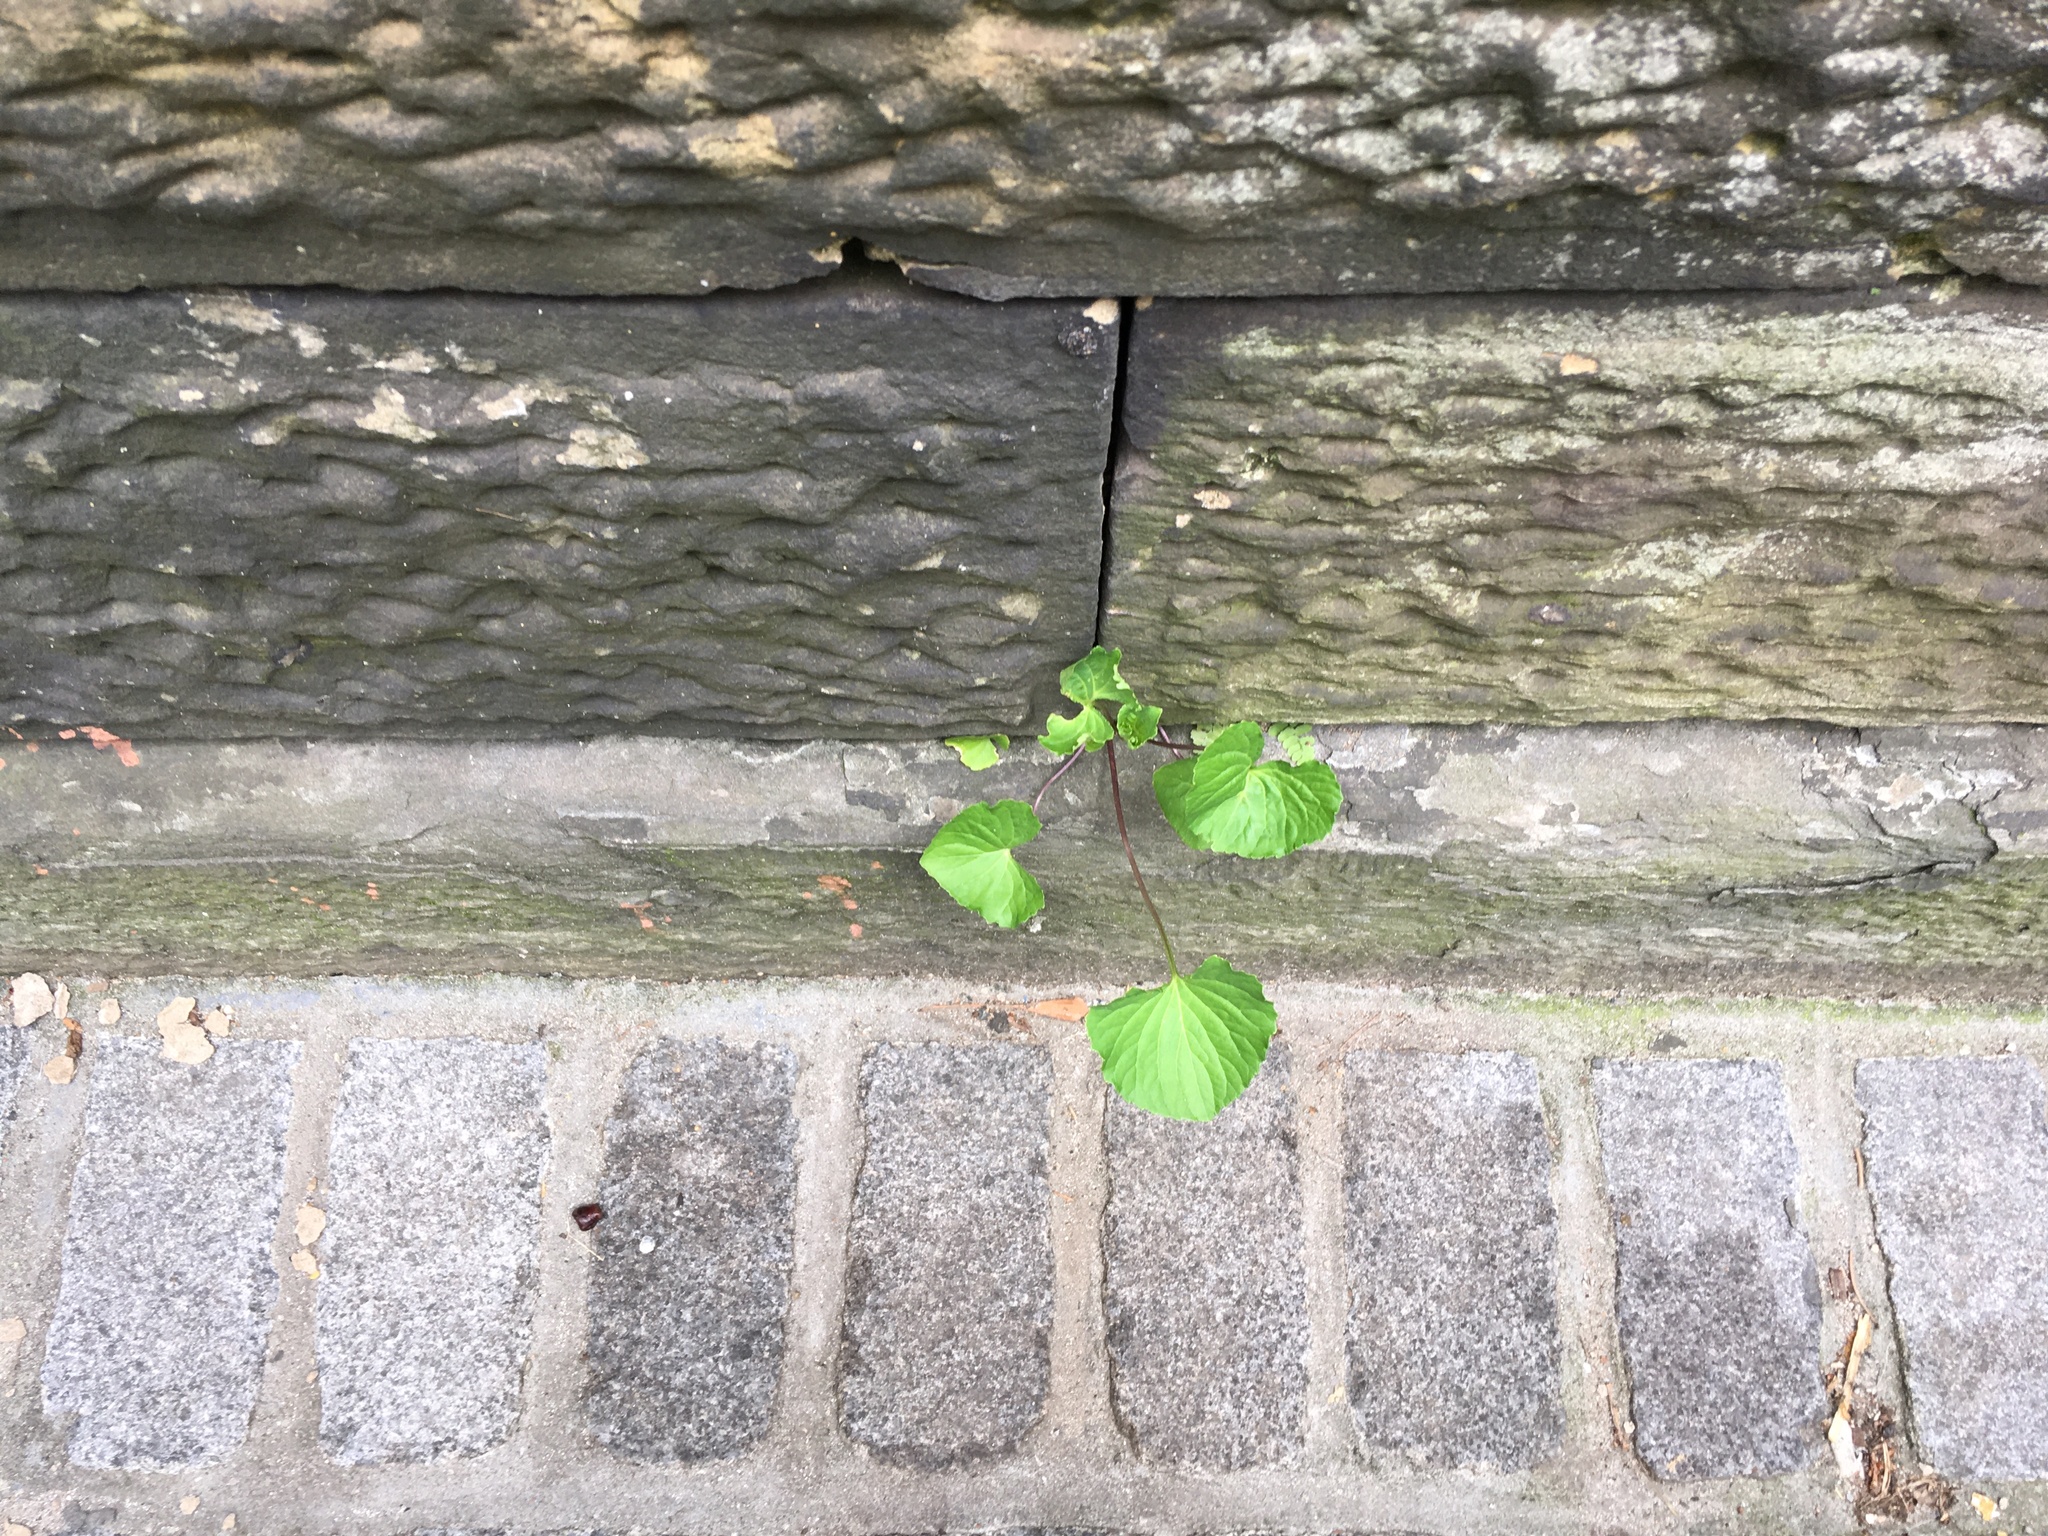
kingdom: Plantae
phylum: Tracheophyta
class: Magnoliopsida
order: Malpighiales
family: Violaceae
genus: Viola
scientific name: Viola sororia
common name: Dooryard violet
